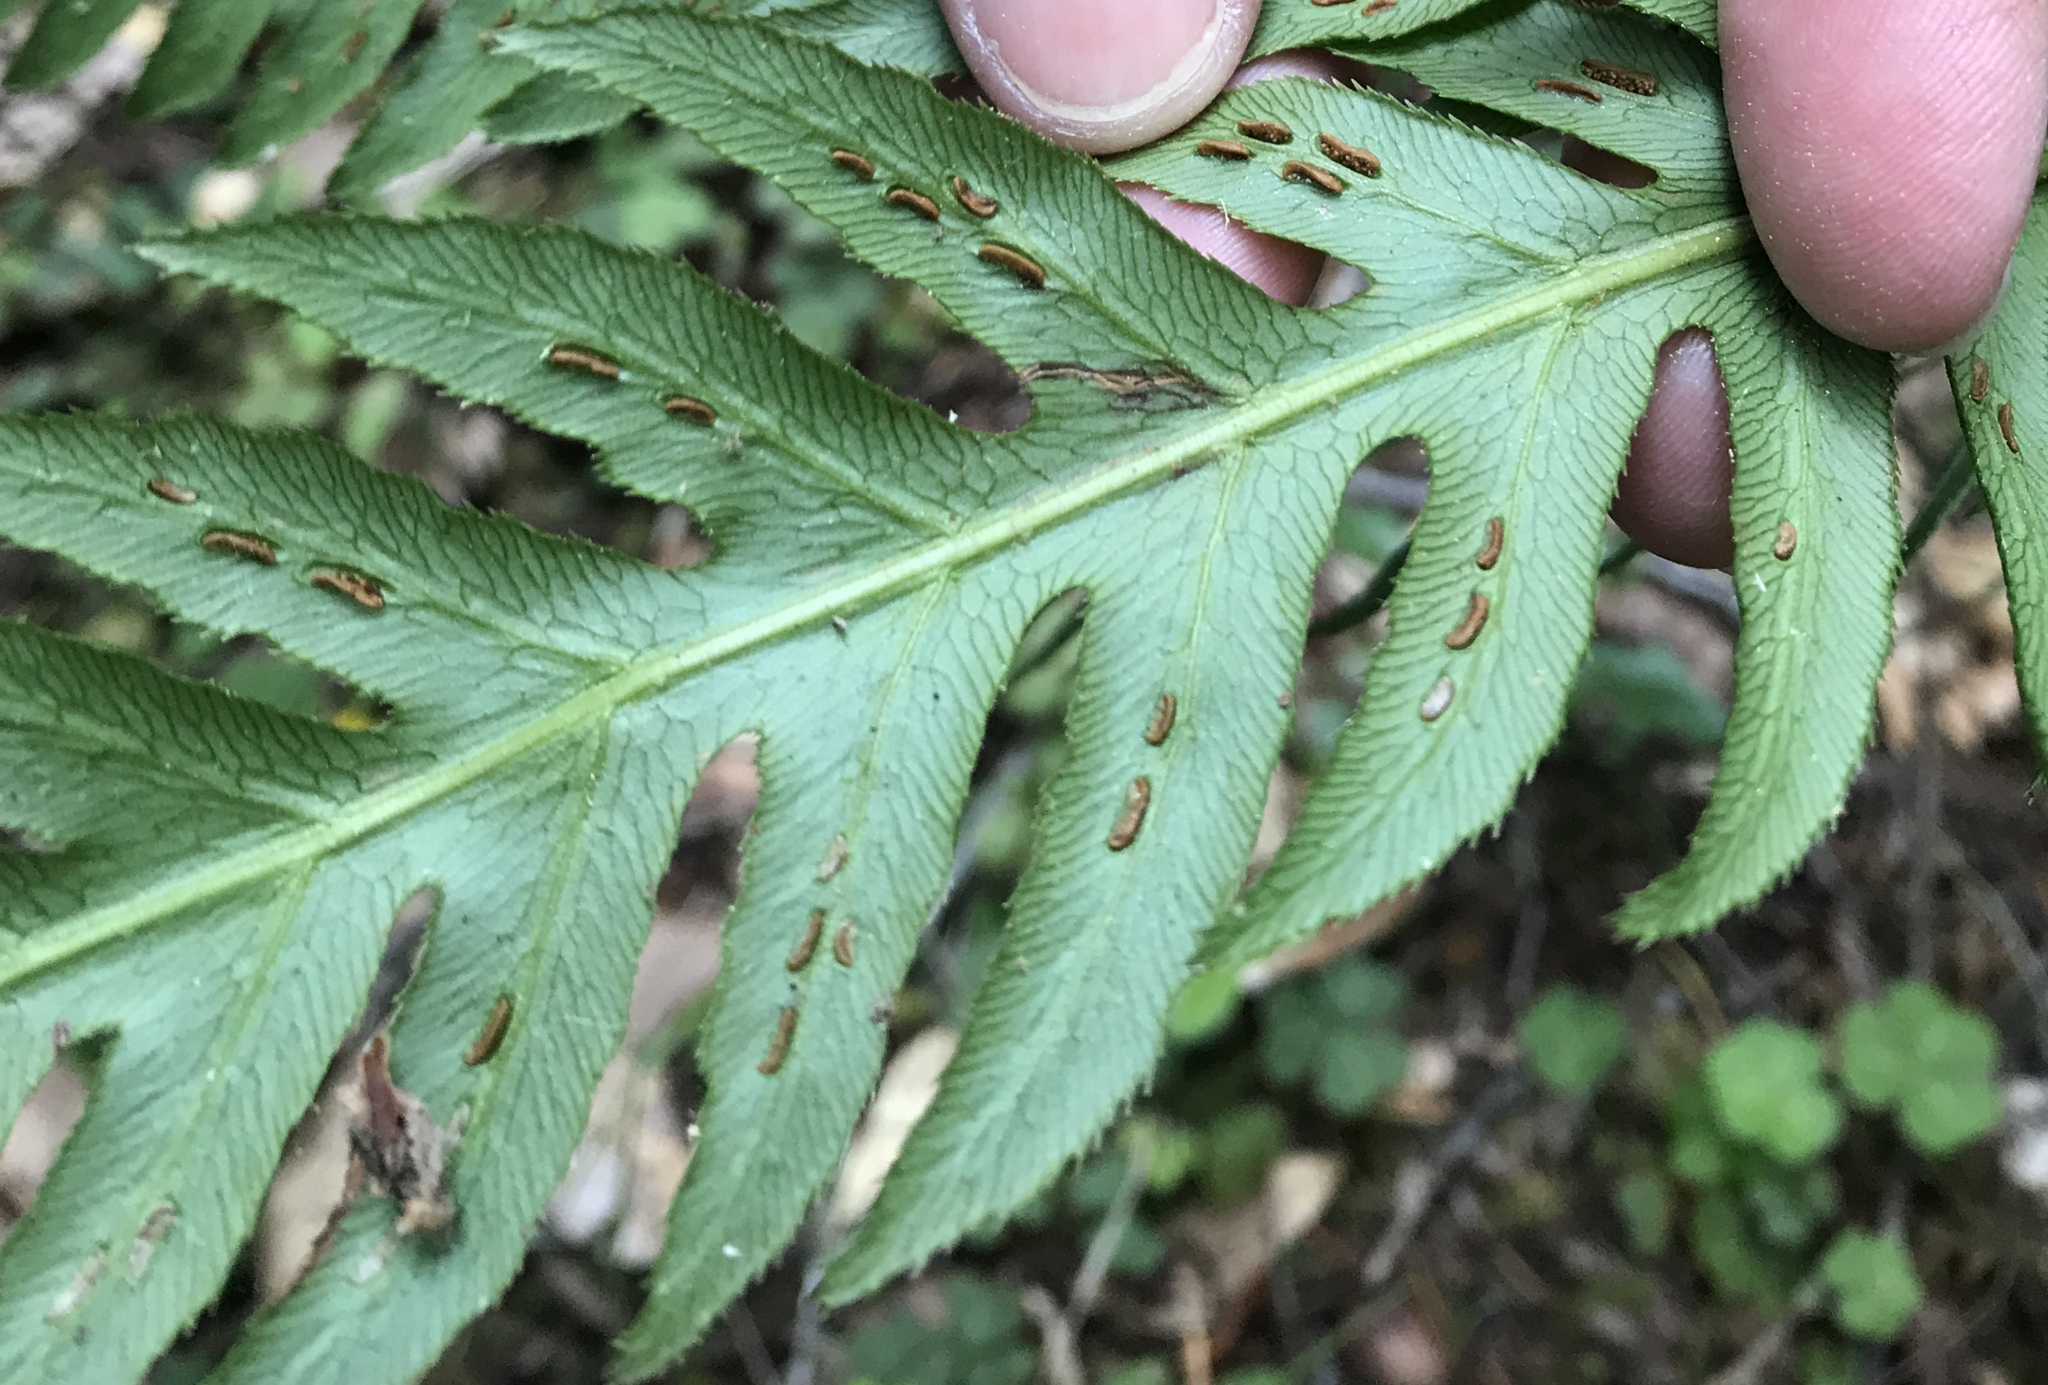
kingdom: Plantae
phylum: Tracheophyta
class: Polypodiopsida
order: Polypodiales
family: Blechnaceae
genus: Woodwardia
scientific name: Woodwardia fimbriata
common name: Giant chain fern
